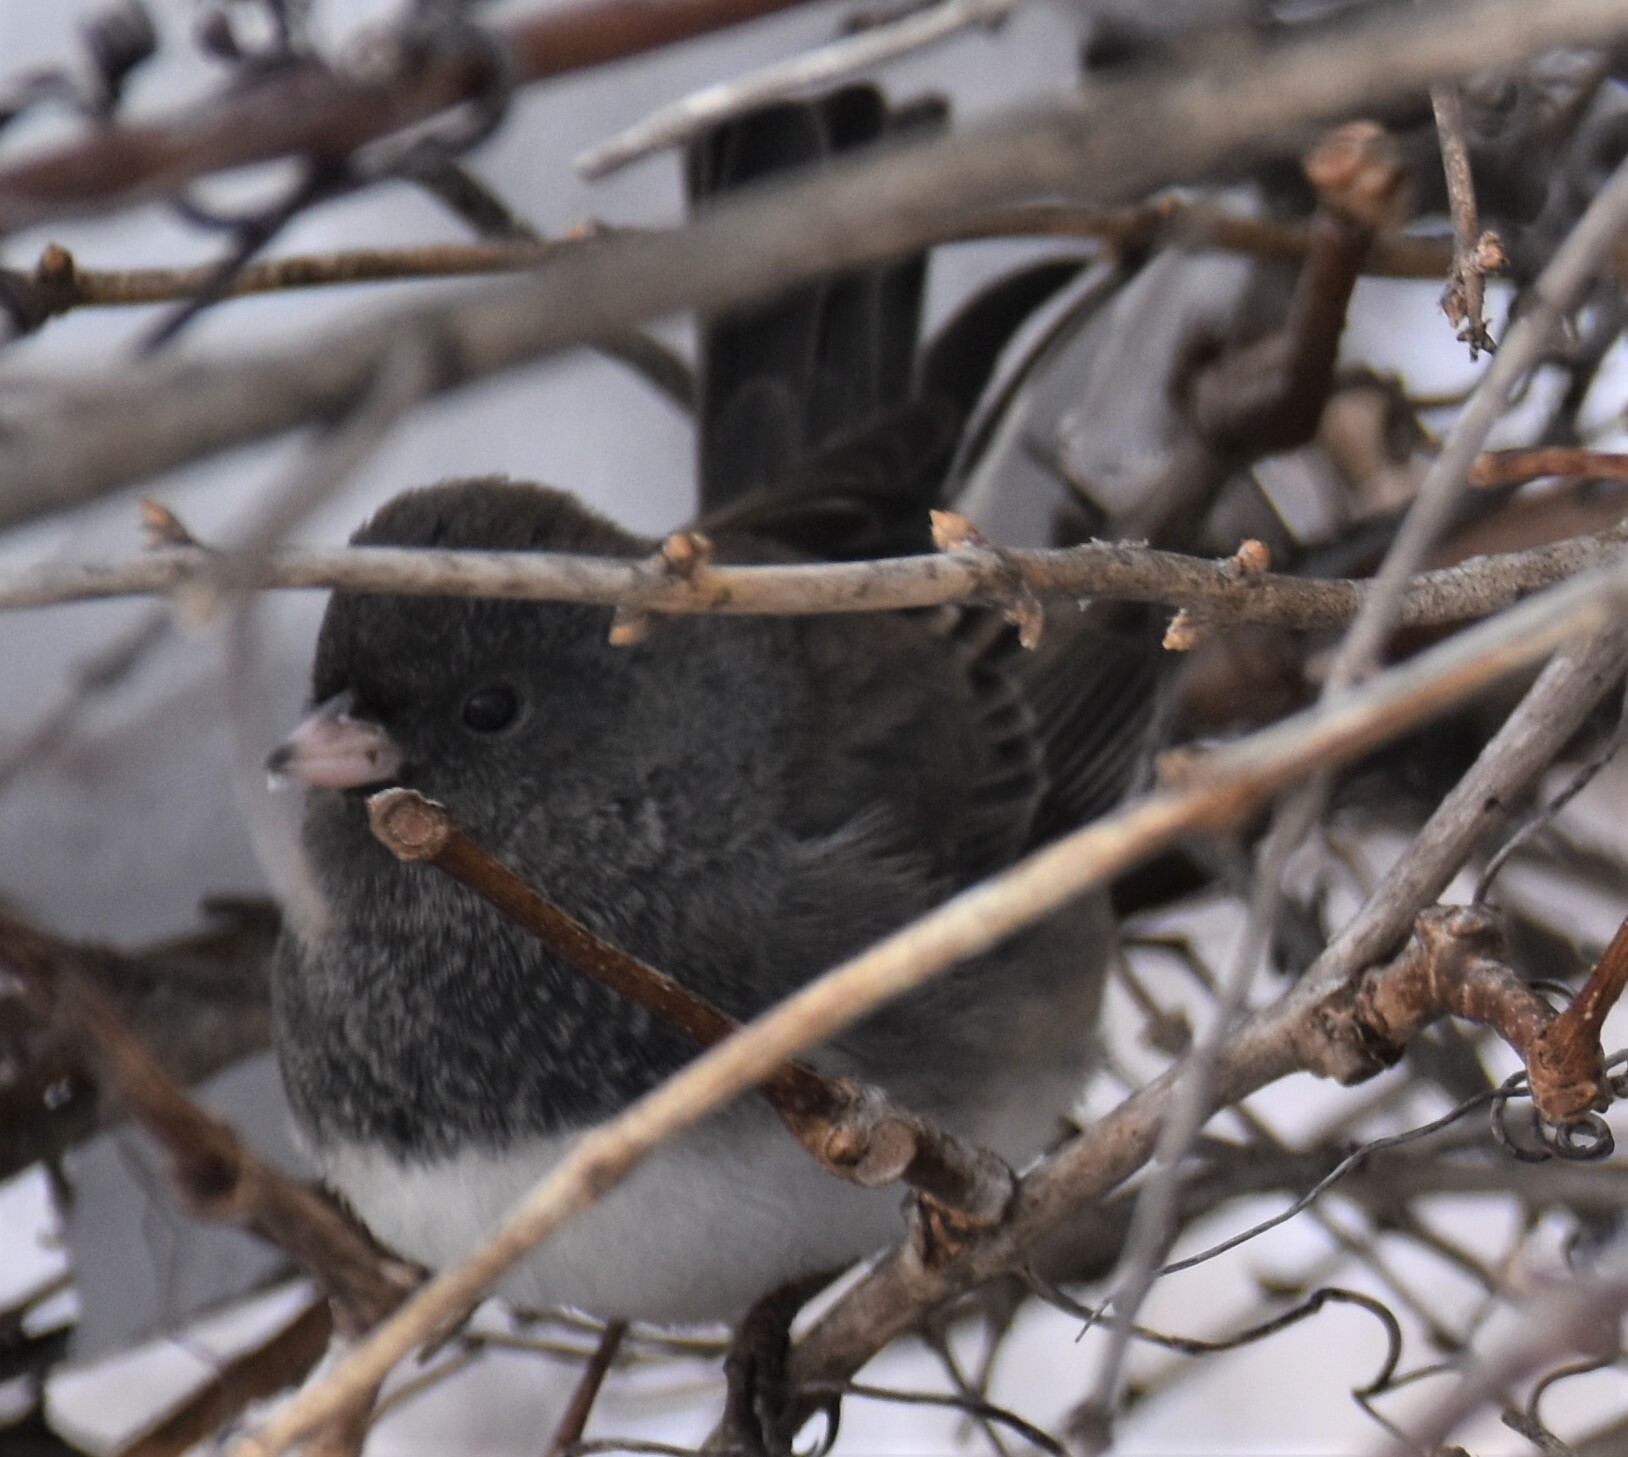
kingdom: Animalia
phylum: Chordata
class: Aves
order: Passeriformes
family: Passerellidae
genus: Junco
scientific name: Junco hyemalis
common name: Dark-eyed junco
